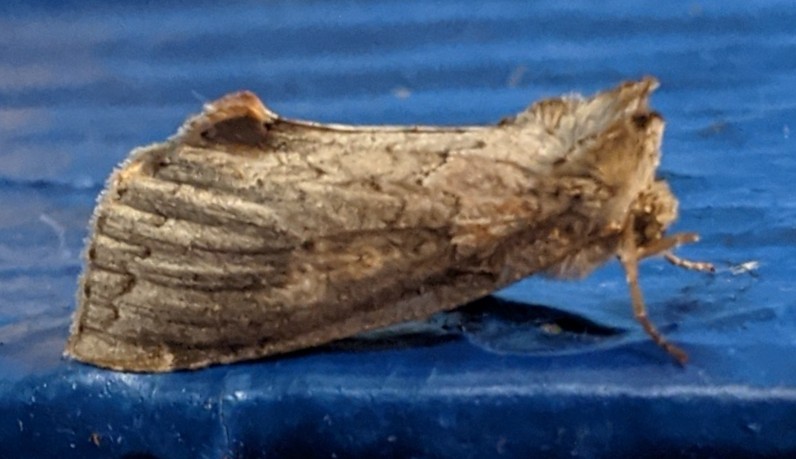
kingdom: Animalia
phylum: Arthropoda
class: Insecta
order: Lepidoptera
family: Drepanidae
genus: Pseudothyatira
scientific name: Pseudothyatira cymatophoroides
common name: Tufted thyatirid moth
